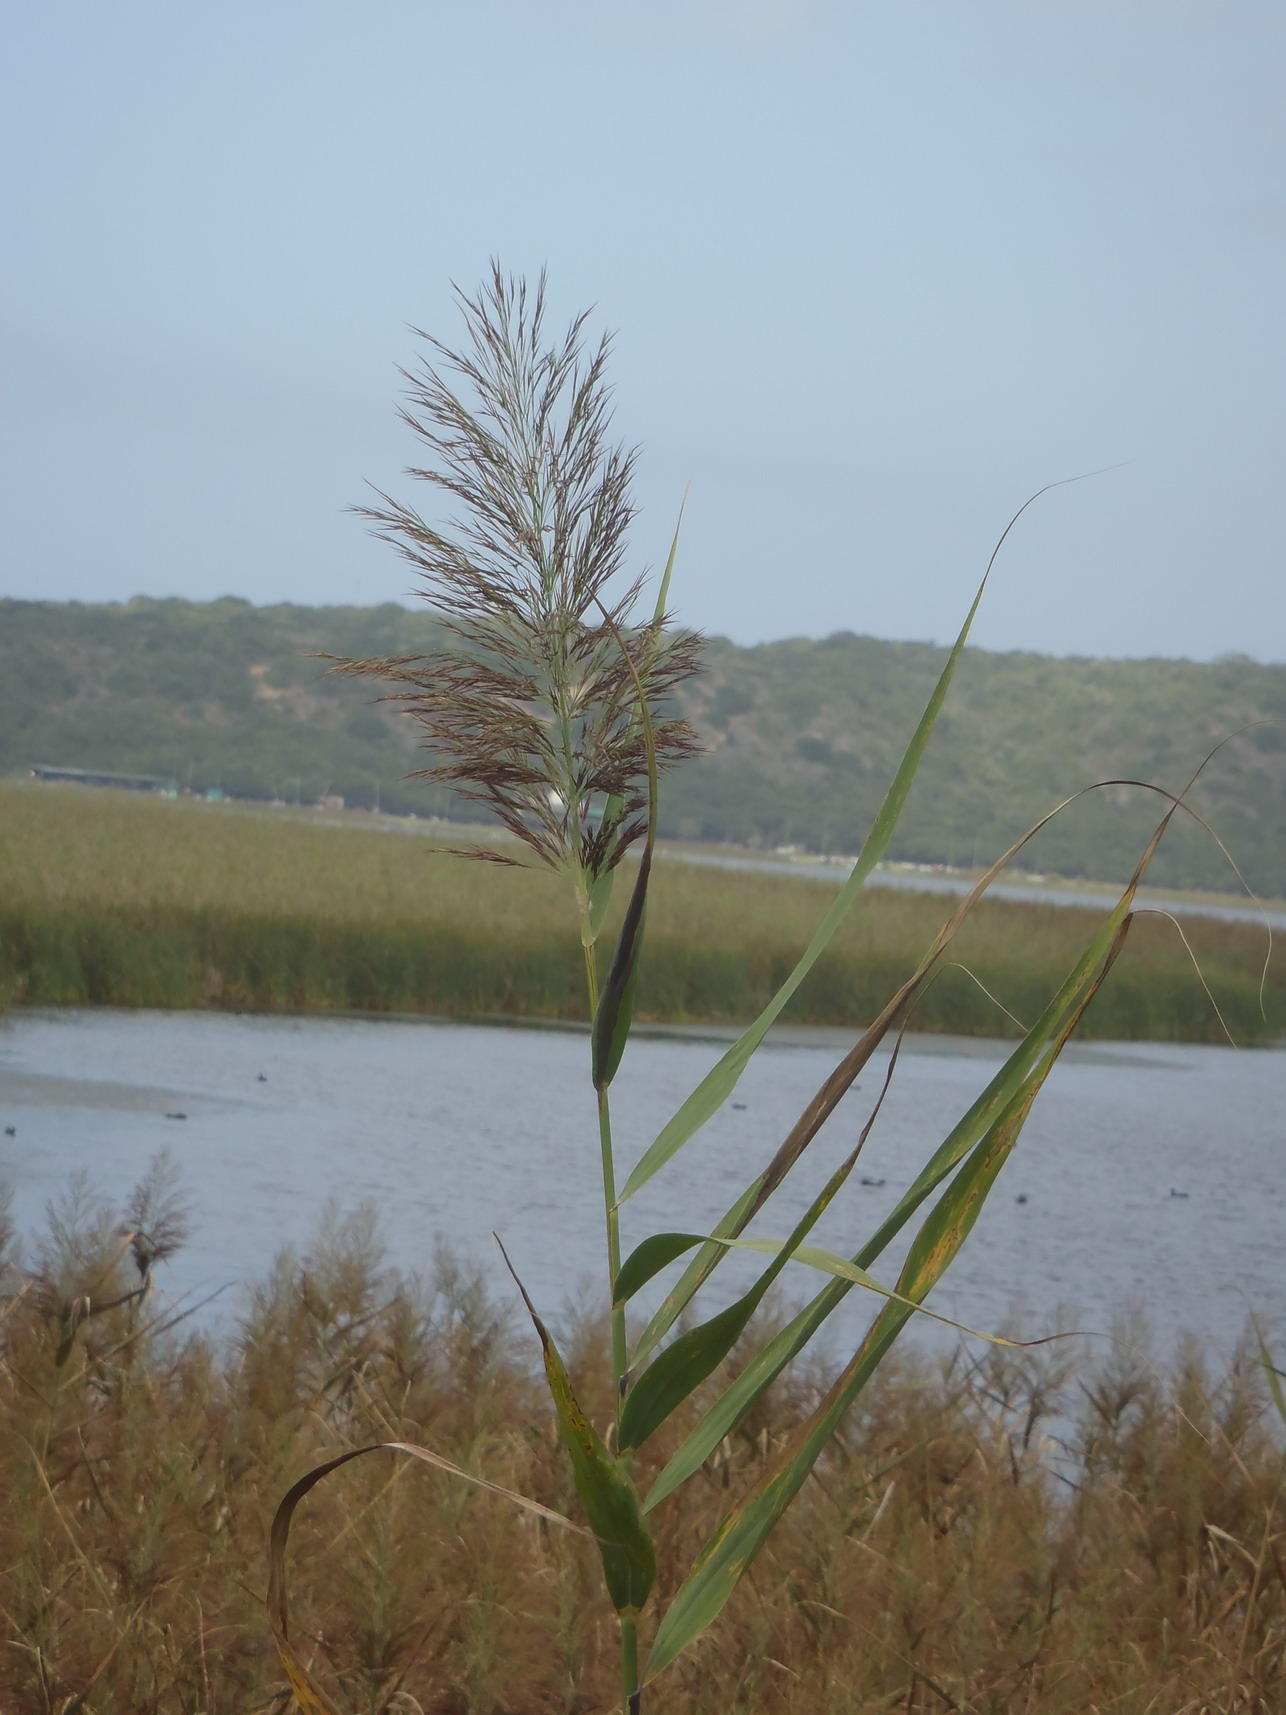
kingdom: Plantae
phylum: Tracheophyta
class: Liliopsida
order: Poales
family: Poaceae
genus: Phragmites
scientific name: Phragmites australis
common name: Common reed
